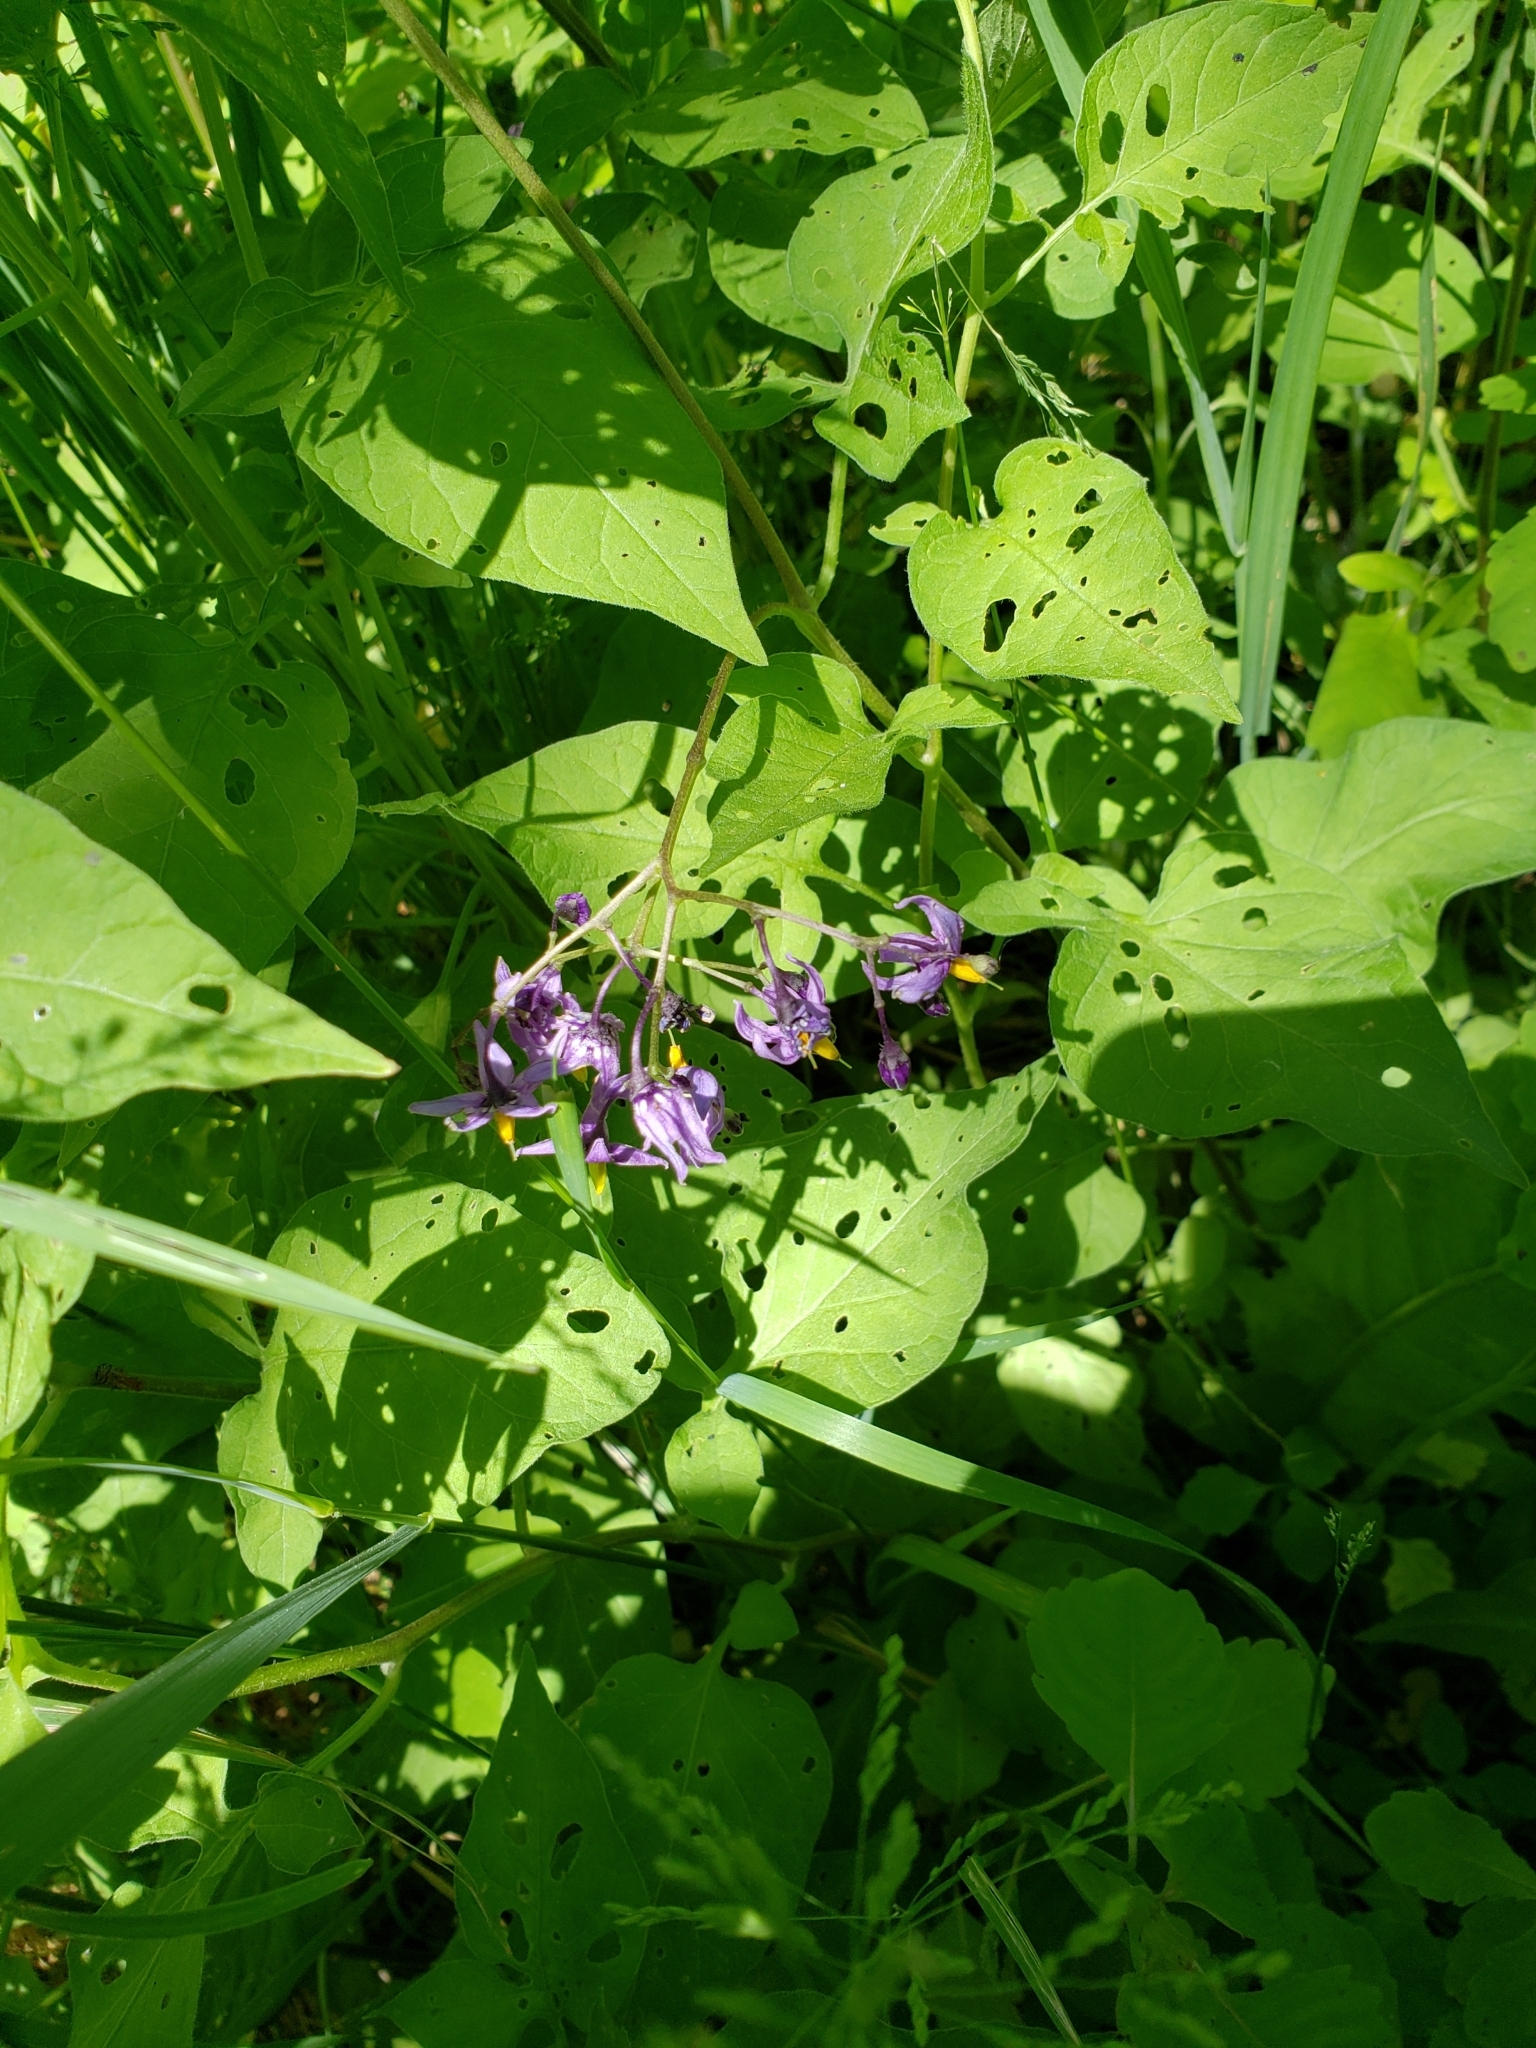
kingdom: Plantae
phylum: Tracheophyta
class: Magnoliopsida
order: Solanales
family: Solanaceae
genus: Solanum
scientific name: Solanum dulcamara
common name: Climbing nightshade
